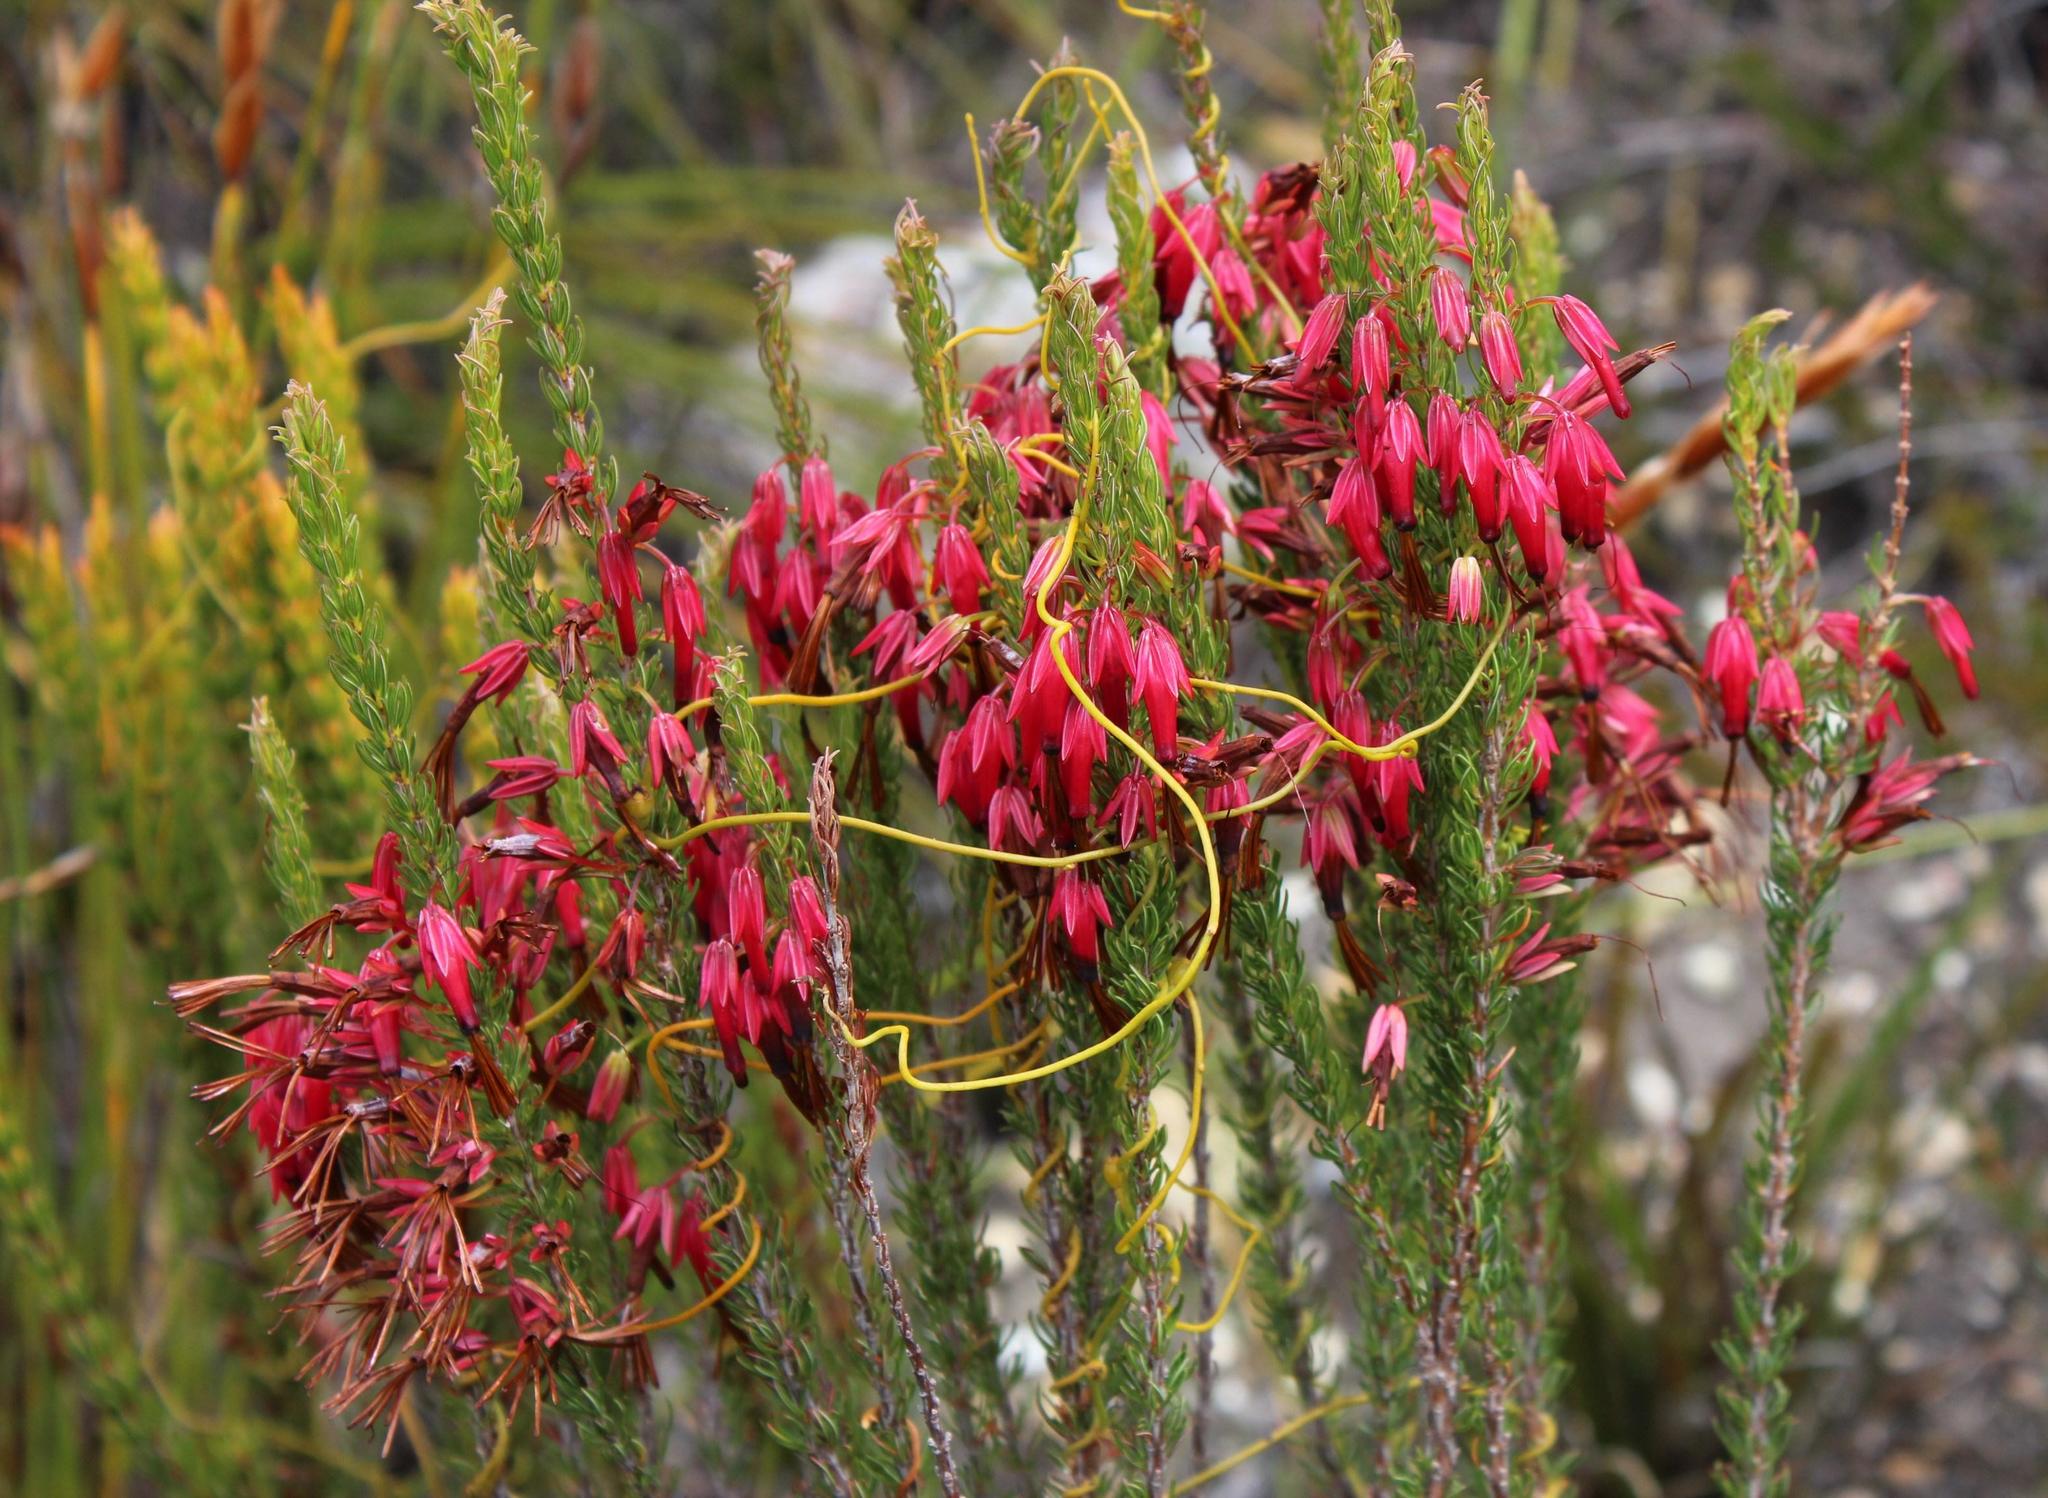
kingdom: Plantae
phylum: Tracheophyta
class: Magnoliopsida
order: Ericales
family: Ericaceae
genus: Erica
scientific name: Erica plukenetii
